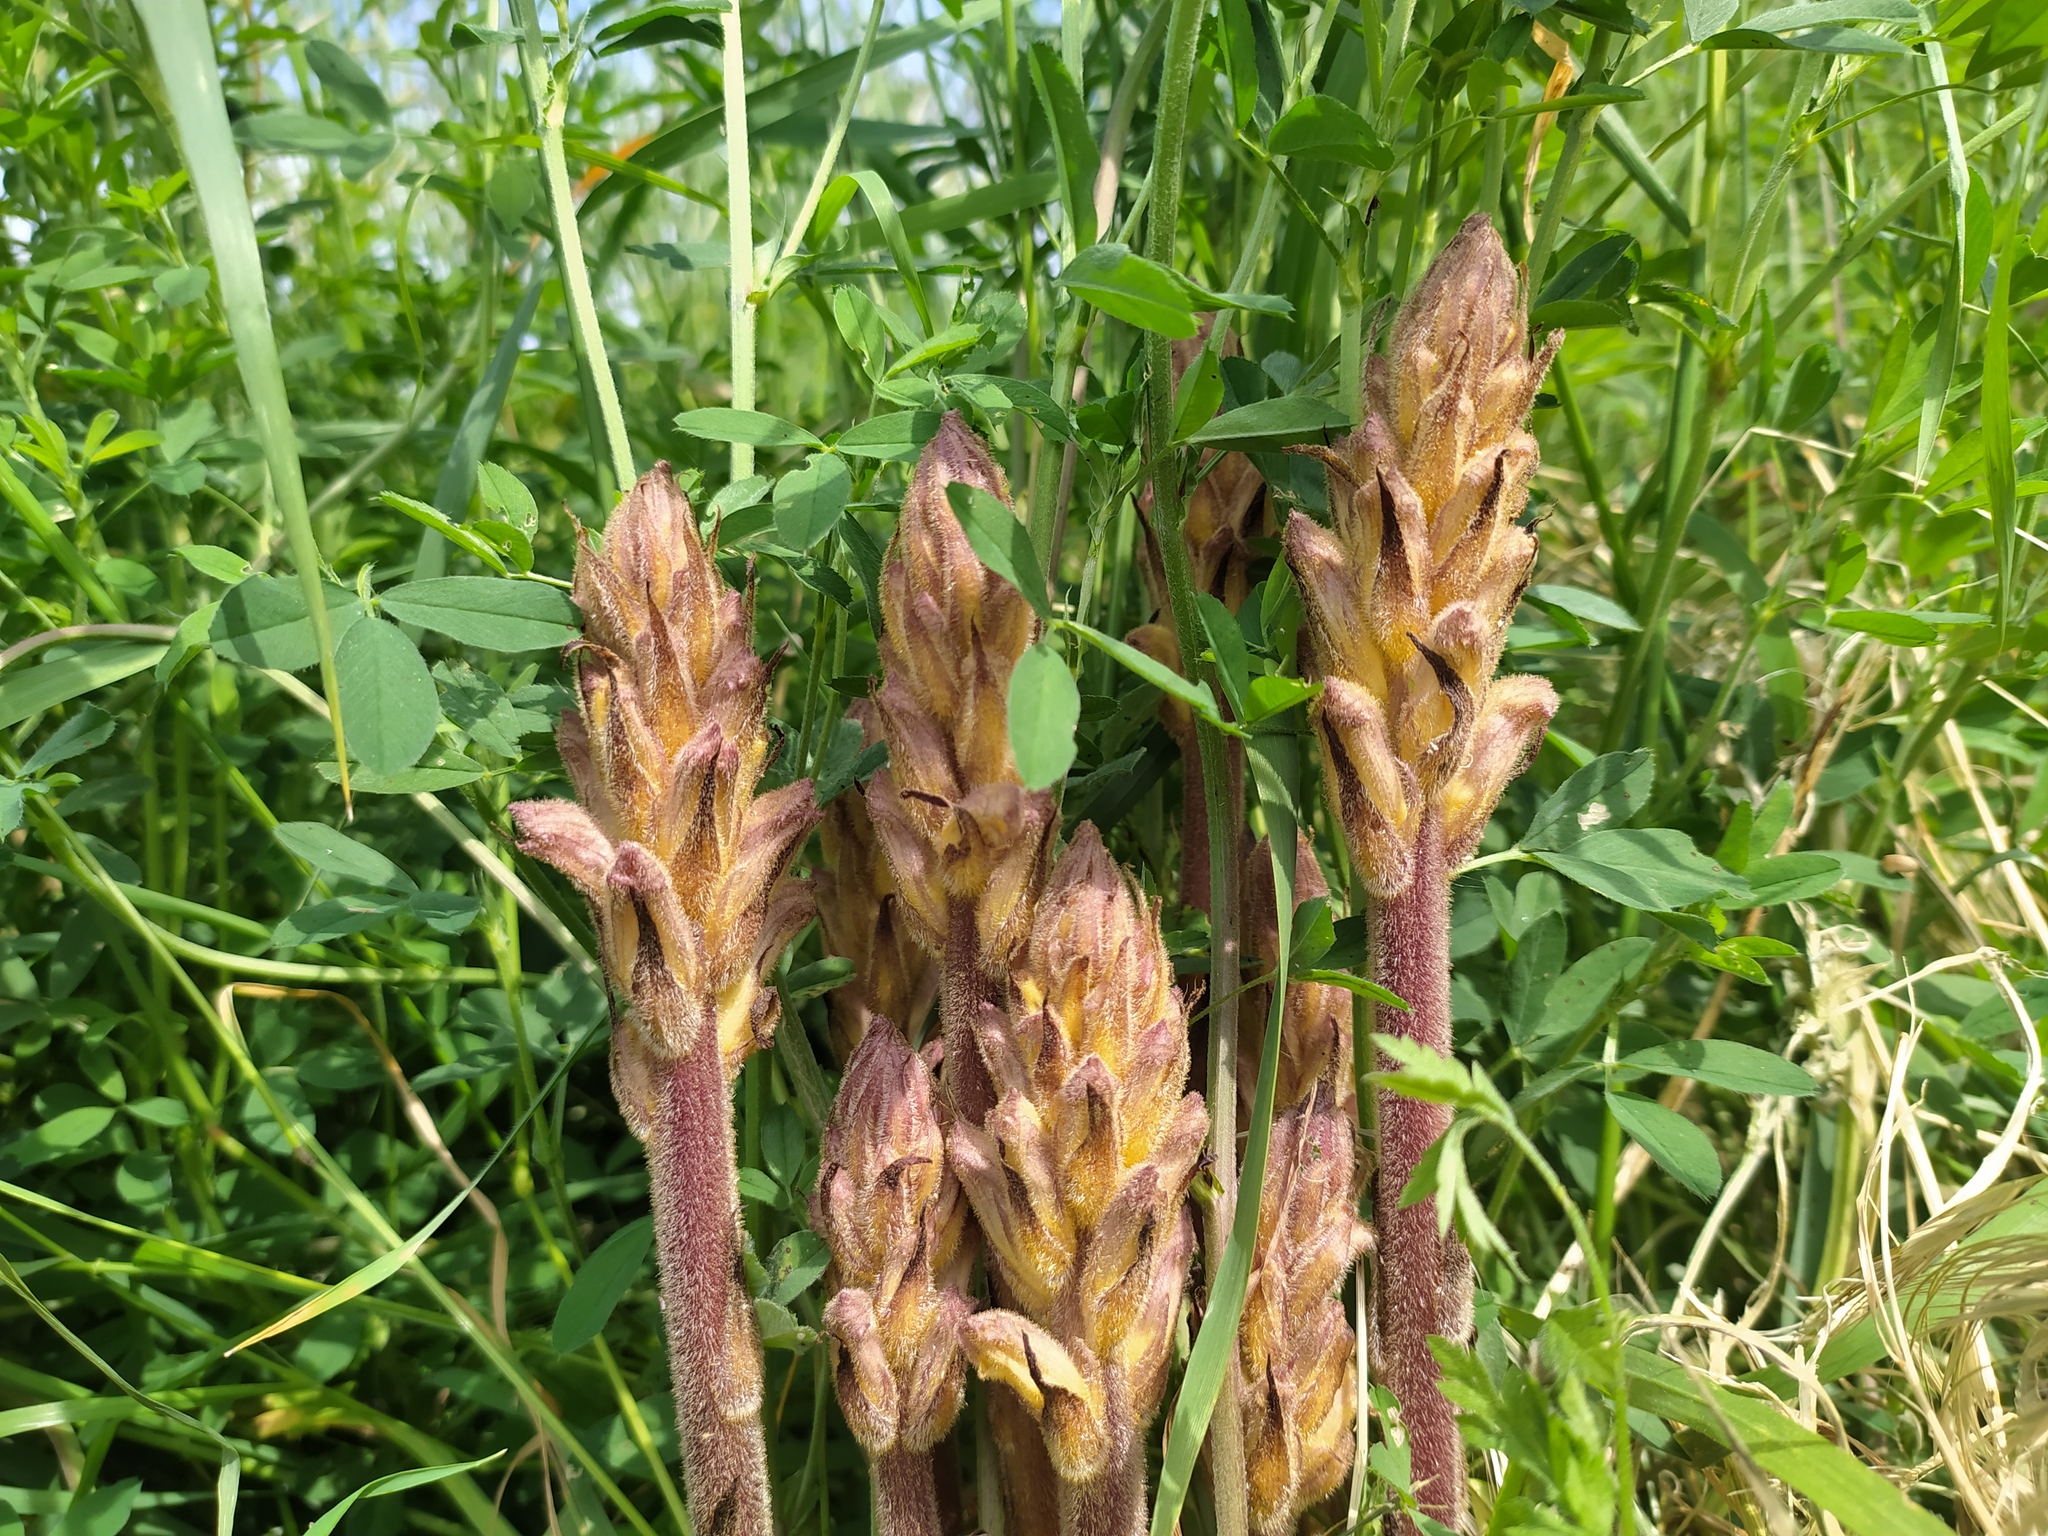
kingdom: Plantae
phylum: Tracheophyta
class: Magnoliopsida
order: Lamiales
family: Orobanchaceae
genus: Orobanche
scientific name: Orobanche lutea
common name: Yellow broomrape
